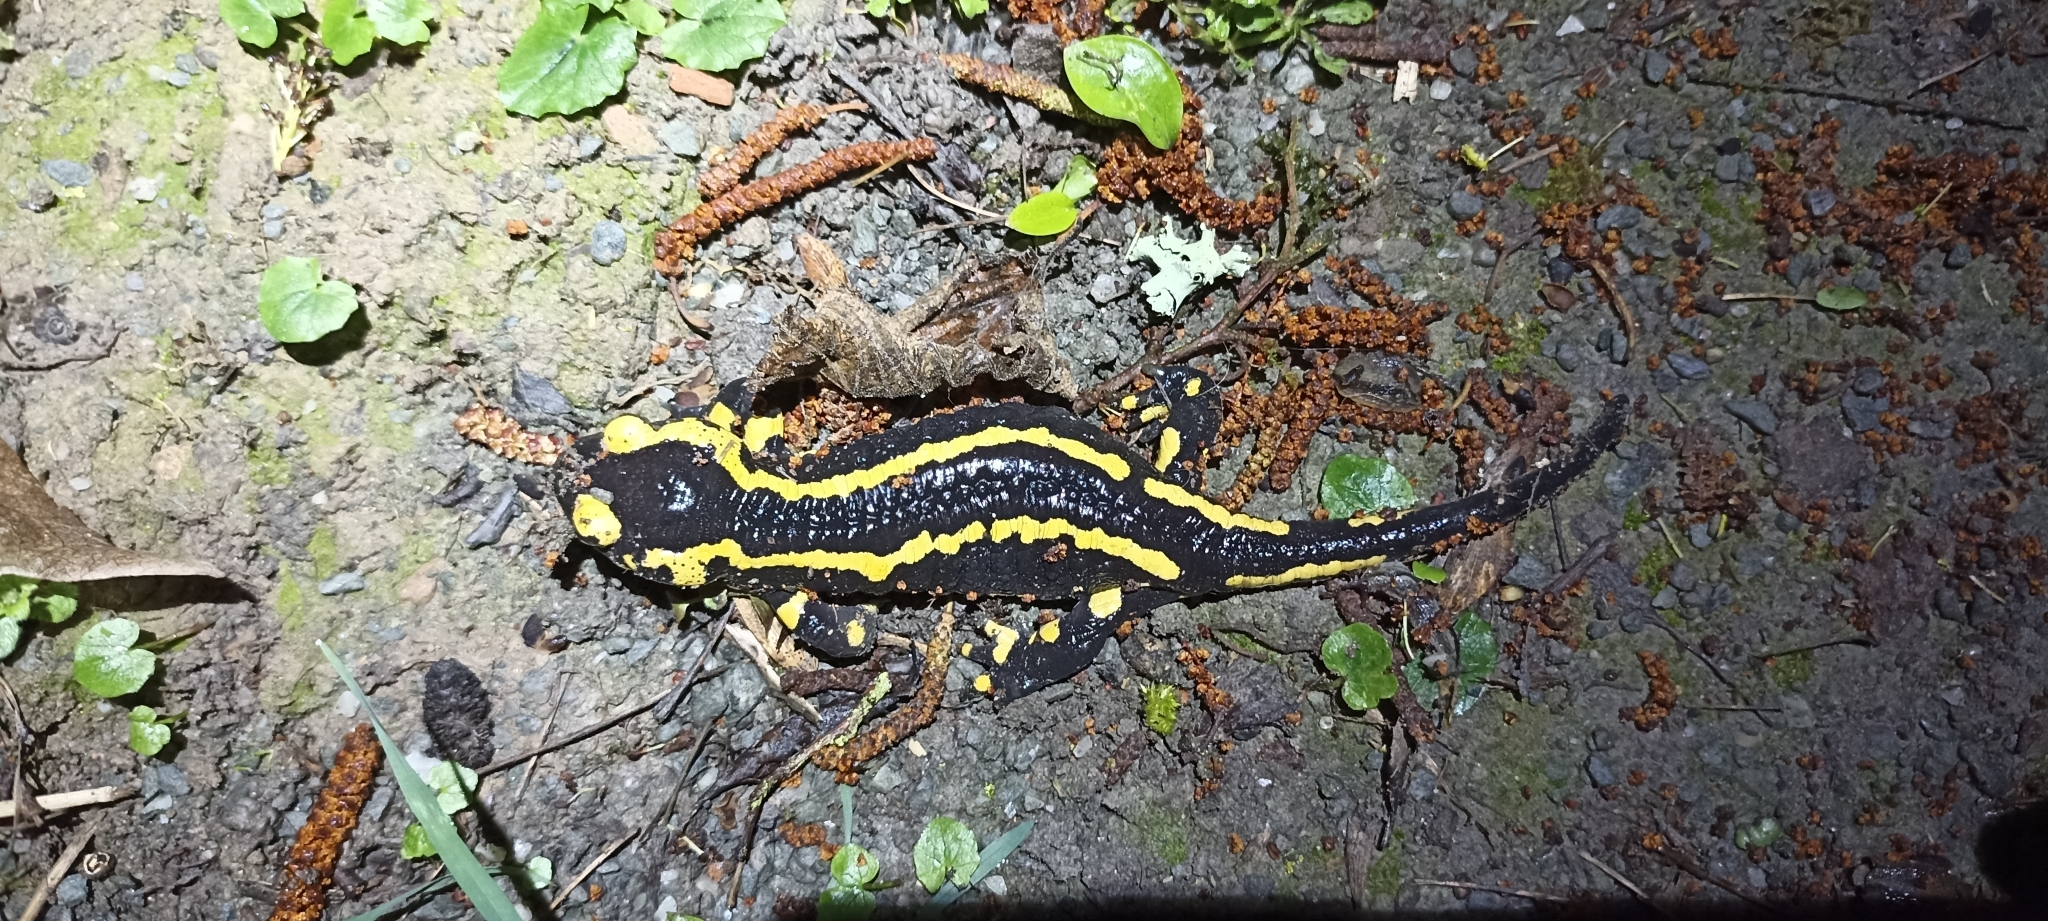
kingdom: Animalia
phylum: Chordata
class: Amphibia
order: Caudata
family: Salamandridae
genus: Salamandra
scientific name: Salamandra salamandra
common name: Fire salamander
